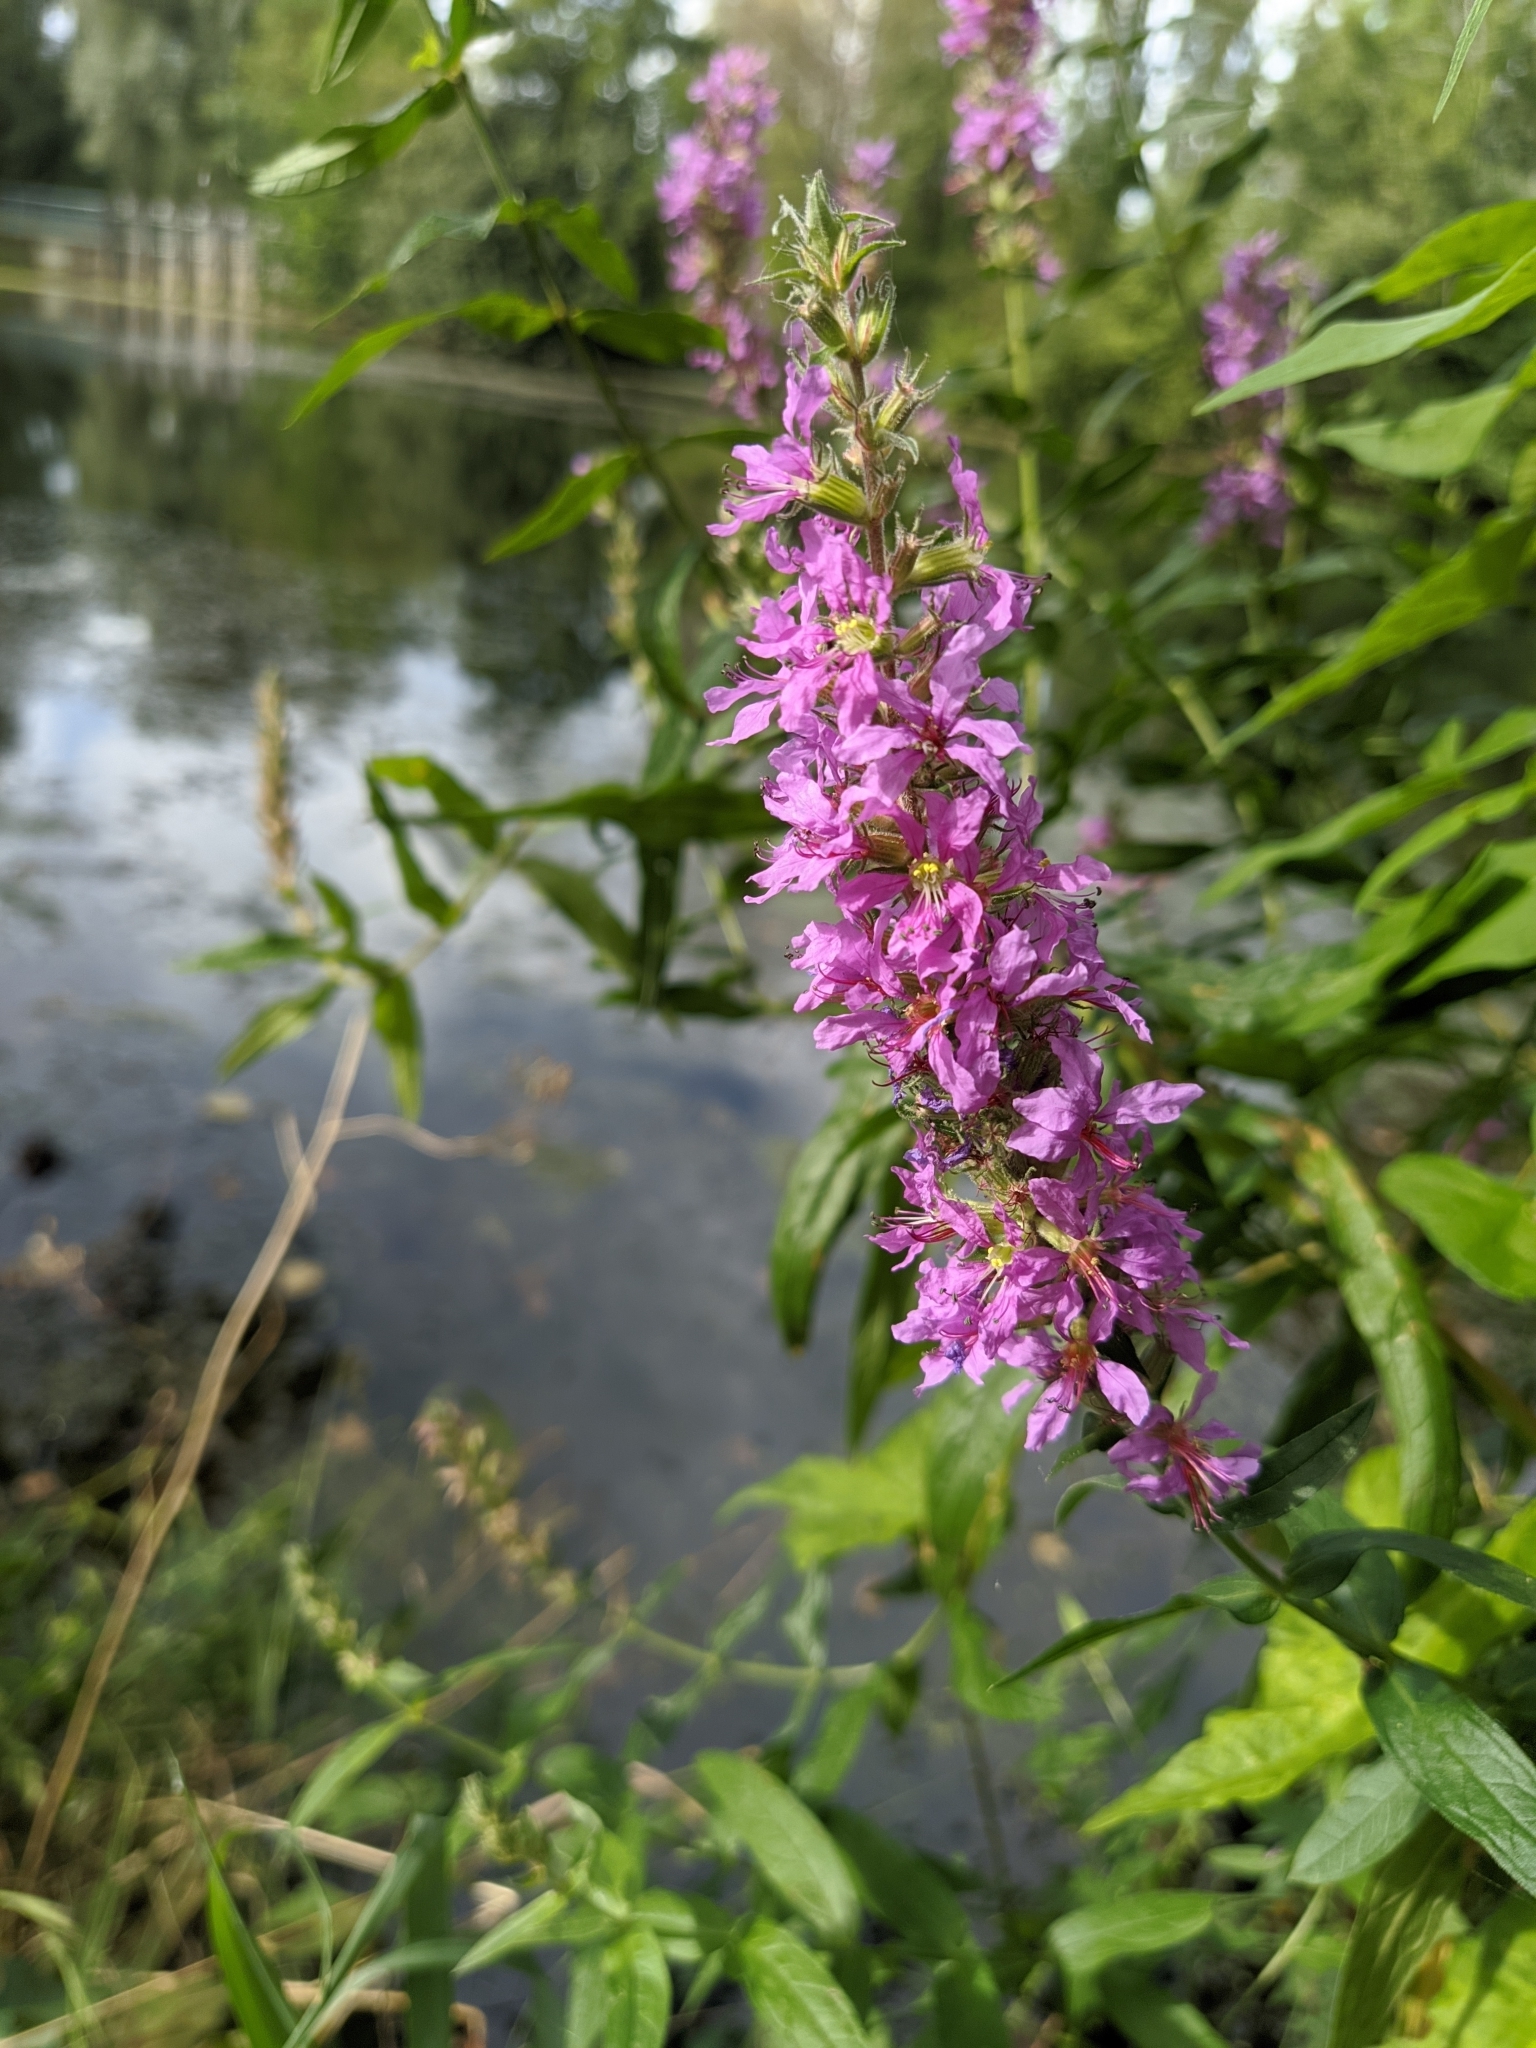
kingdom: Plantae
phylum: Tracheophyta
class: Magnoliopsida
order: Myrtales
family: Lythraceae
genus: Lythrum
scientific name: Lythrum salicaria
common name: Purple loosestrife
